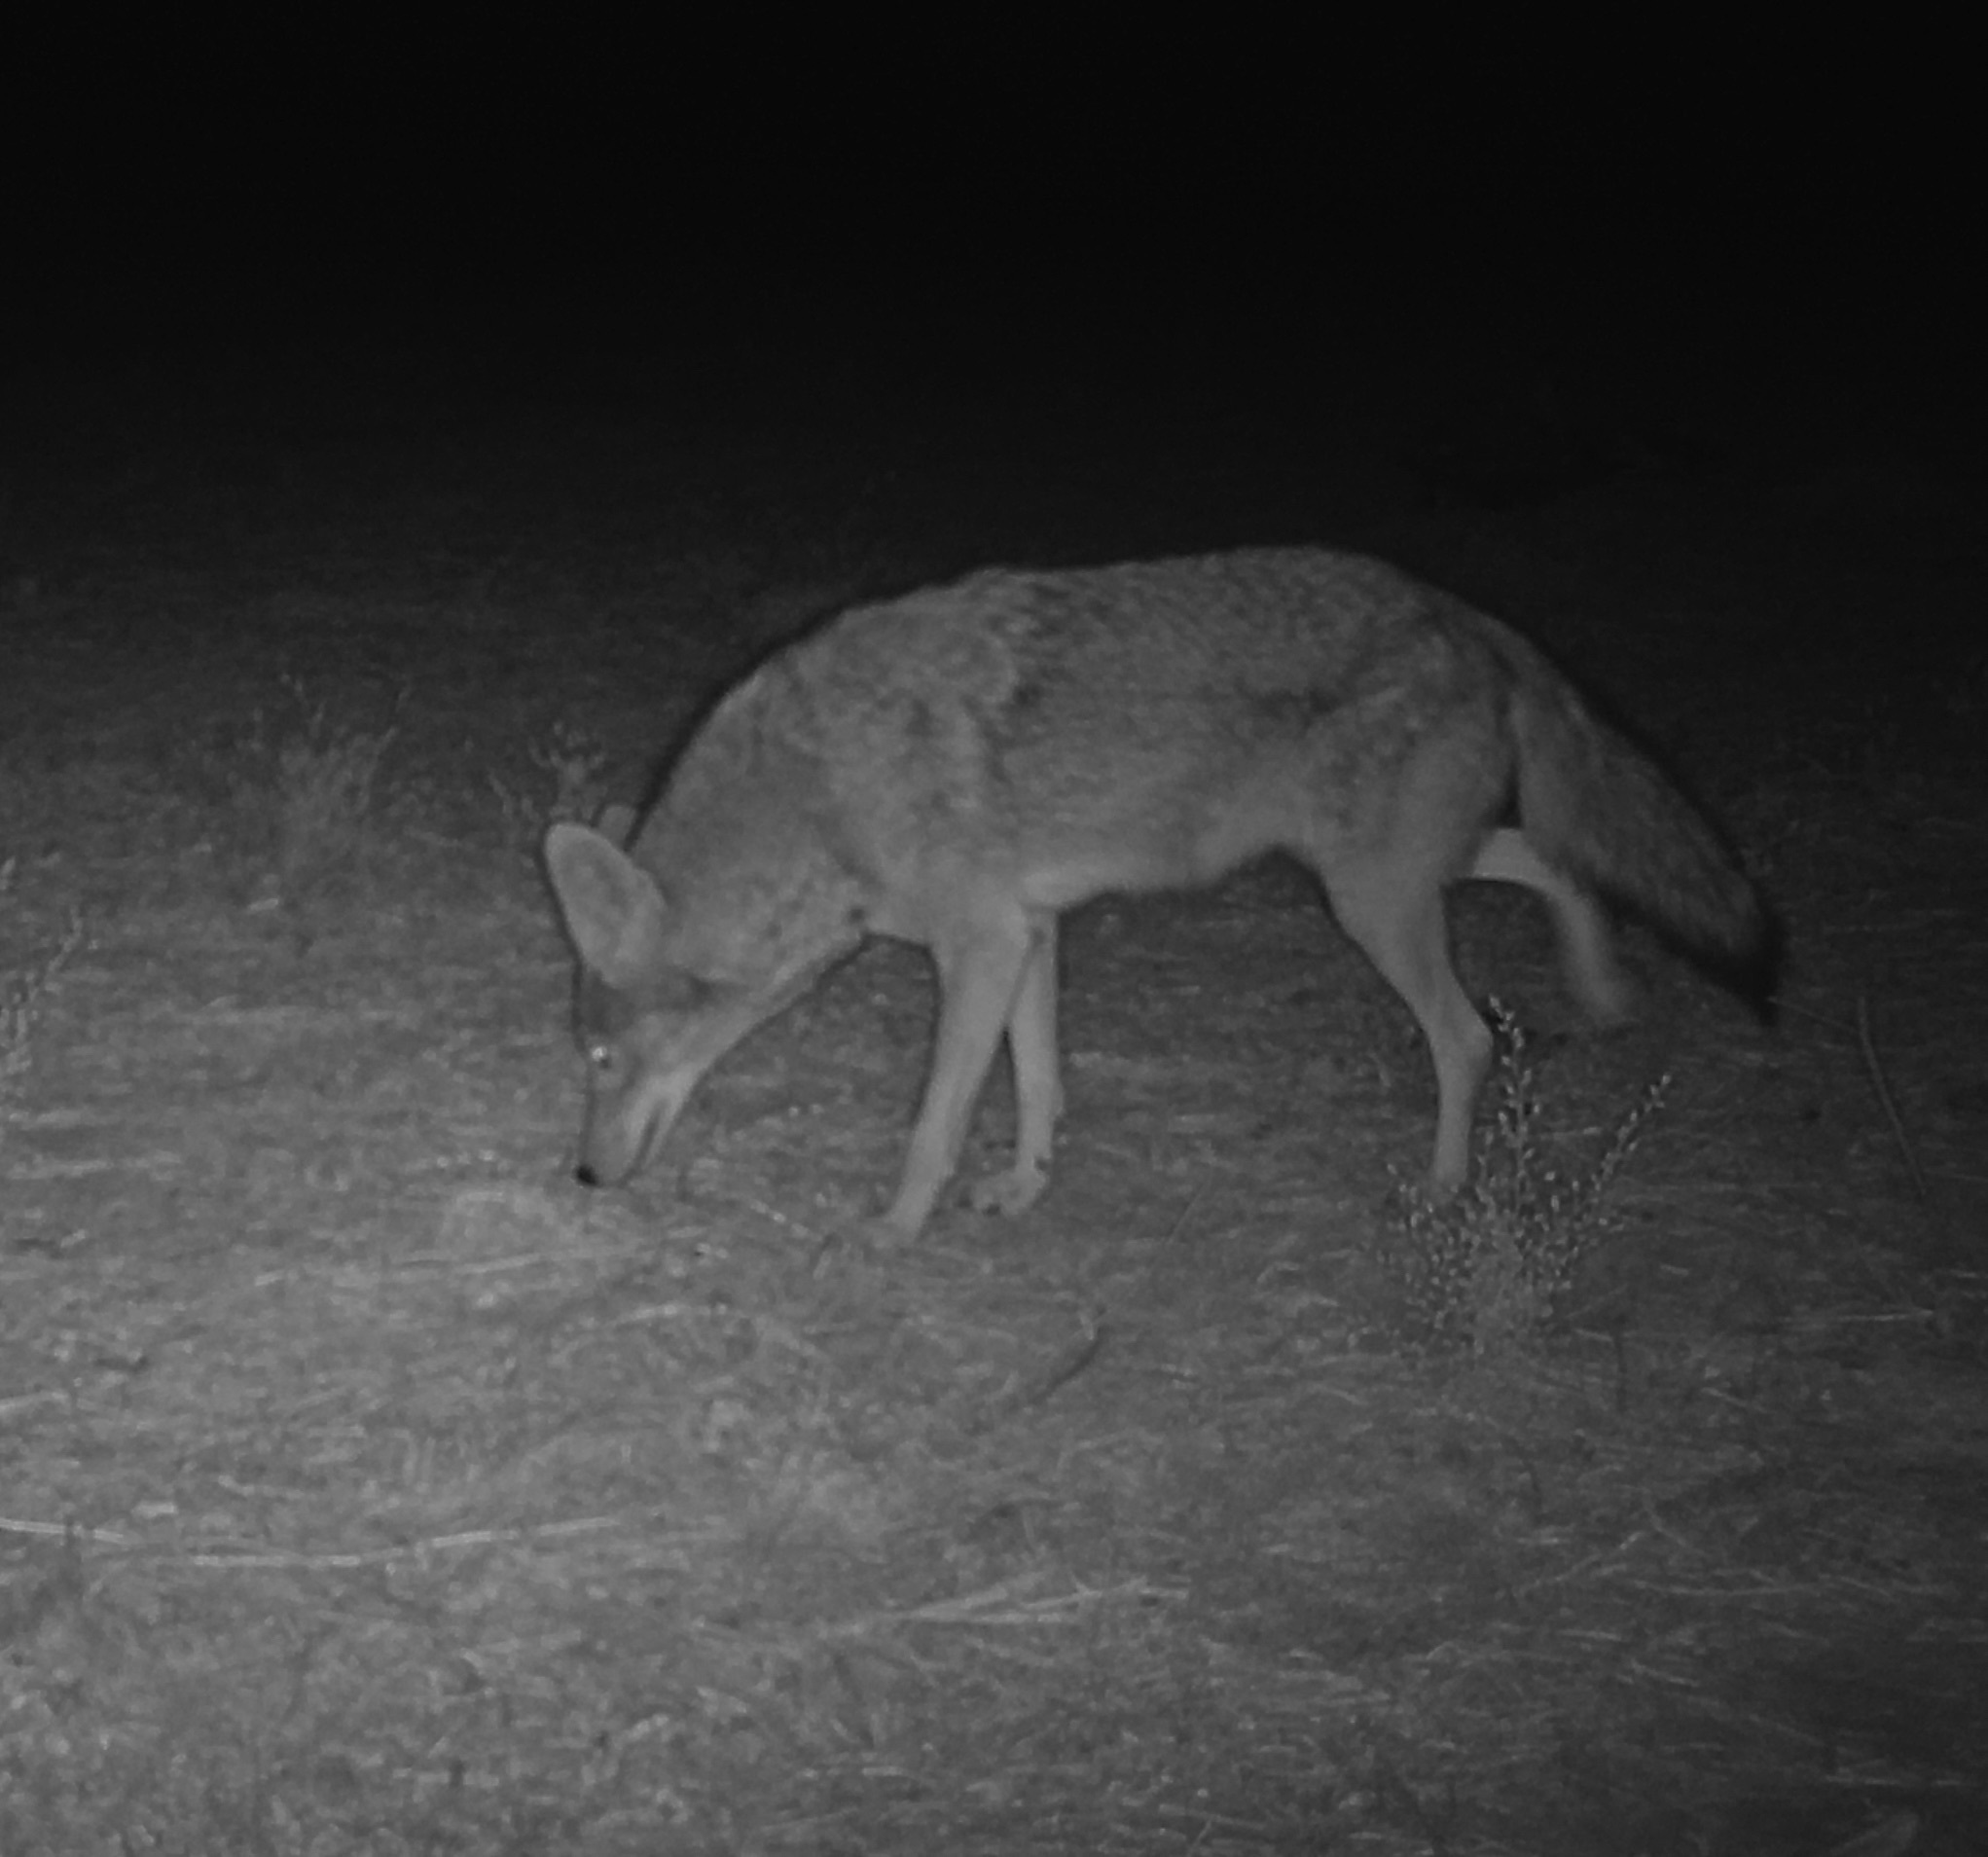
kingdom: Animalia
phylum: Chordata
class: Mammalia
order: Carnivora
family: Canidae
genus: Canis
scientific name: Canis latrans
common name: Coyote
